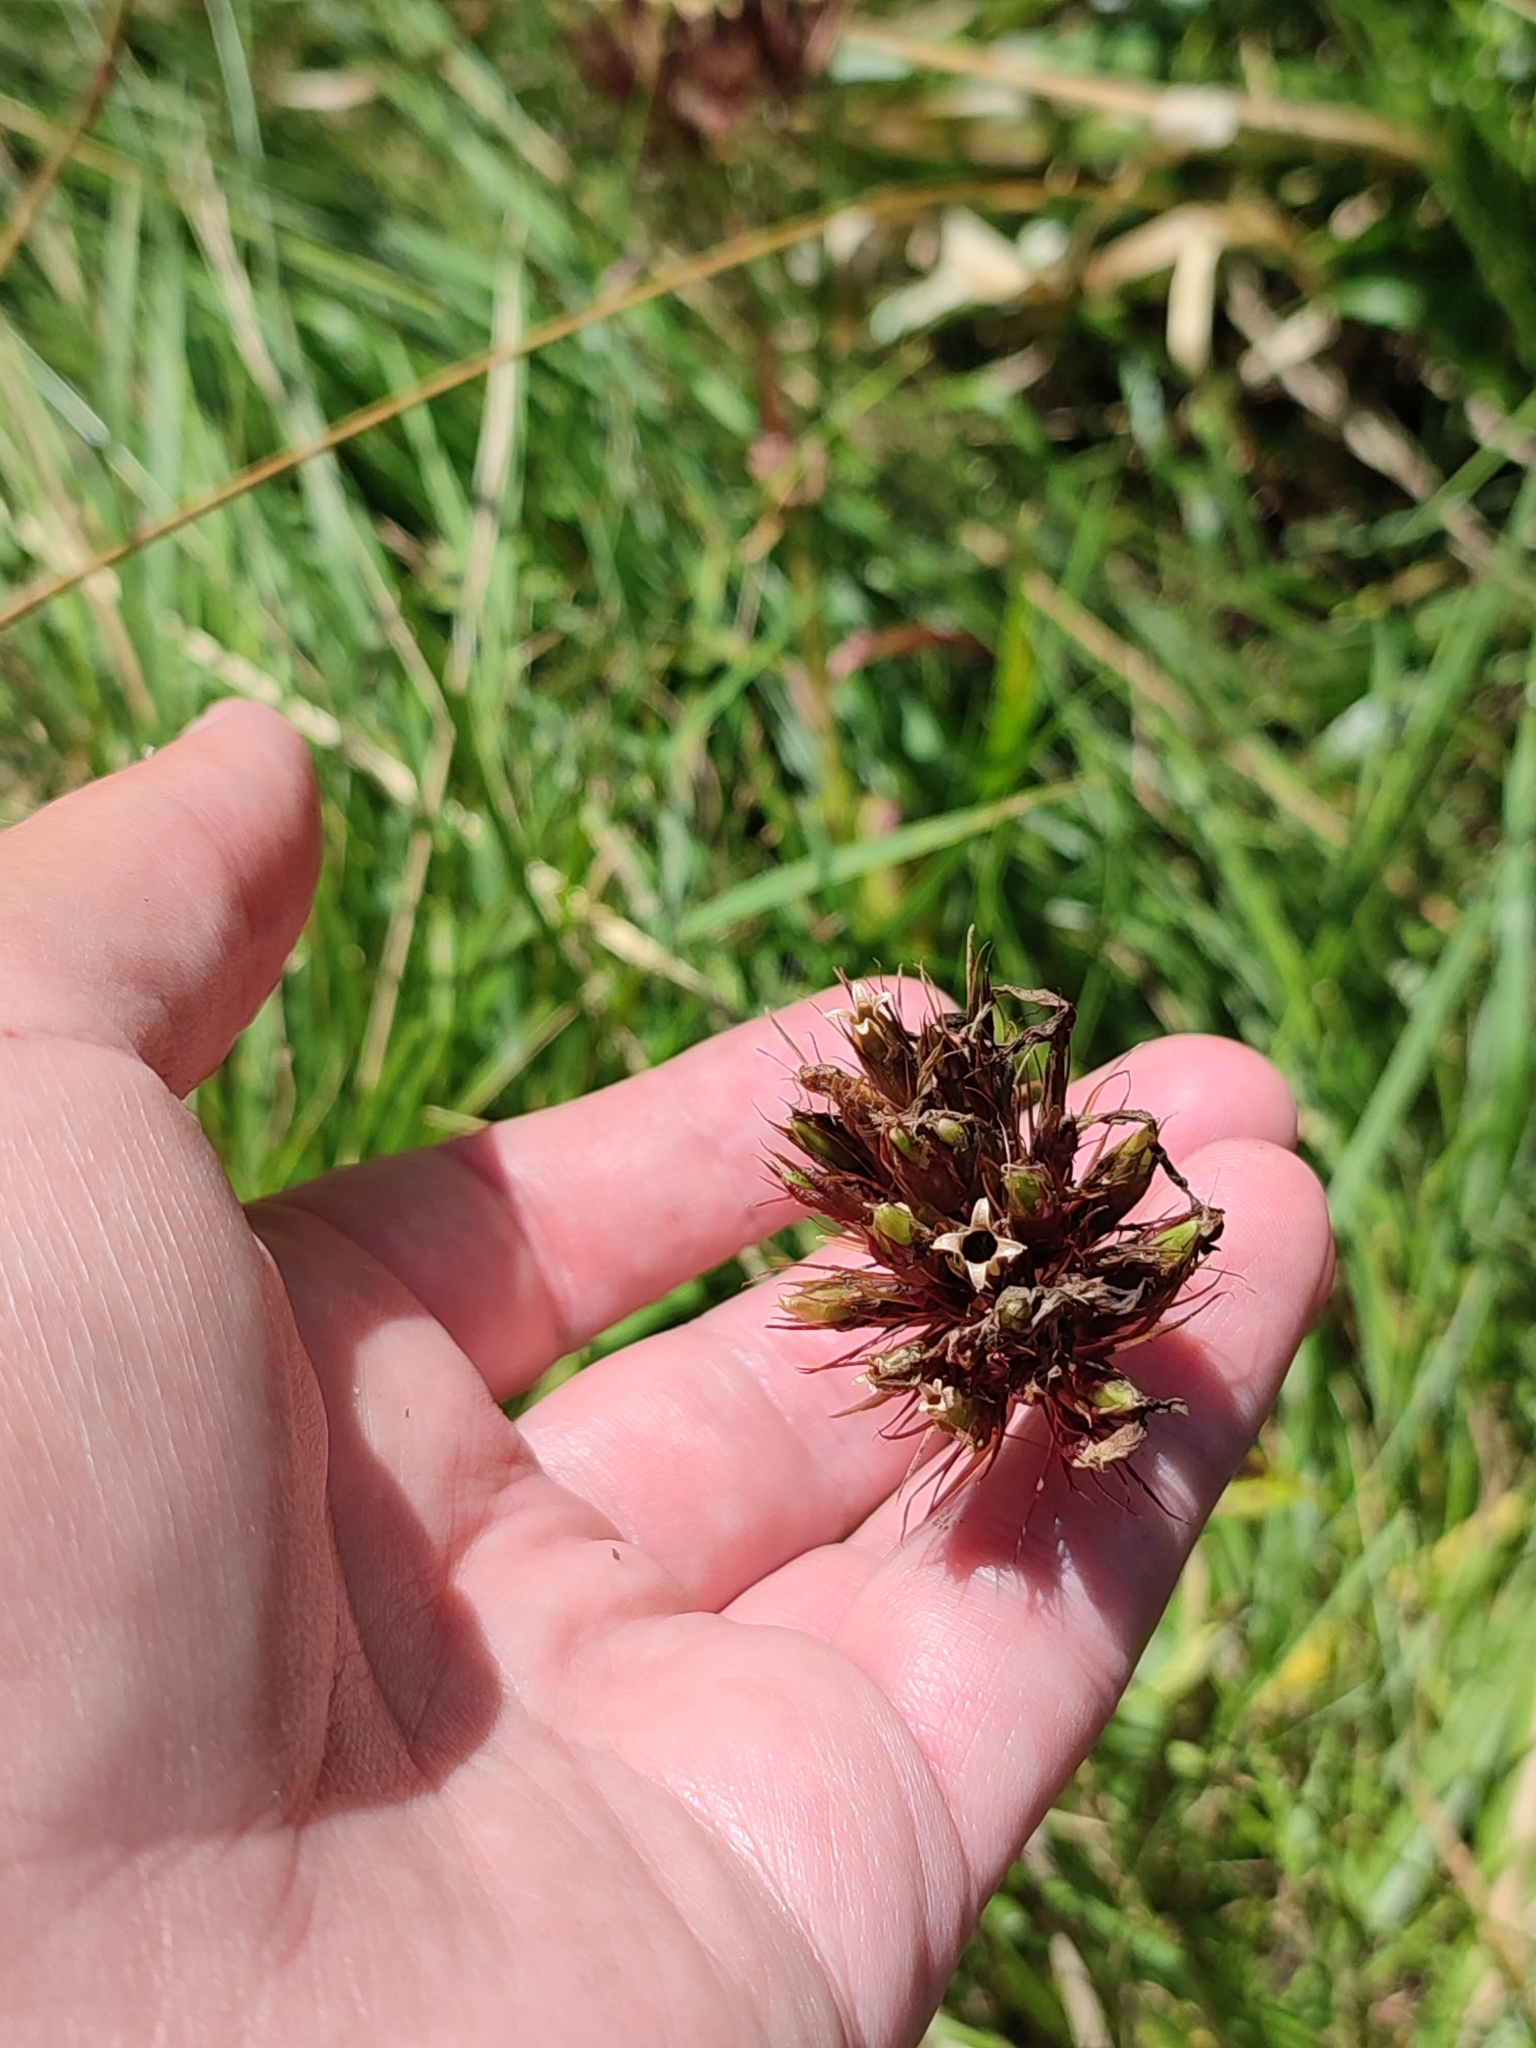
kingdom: Plantae
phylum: Tracheophyta
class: Magnoliopsida
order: Caryophyllales
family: Caryophyllaceae
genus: Dianthus
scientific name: Dianthus carthusianorum
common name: Carthusian pink
